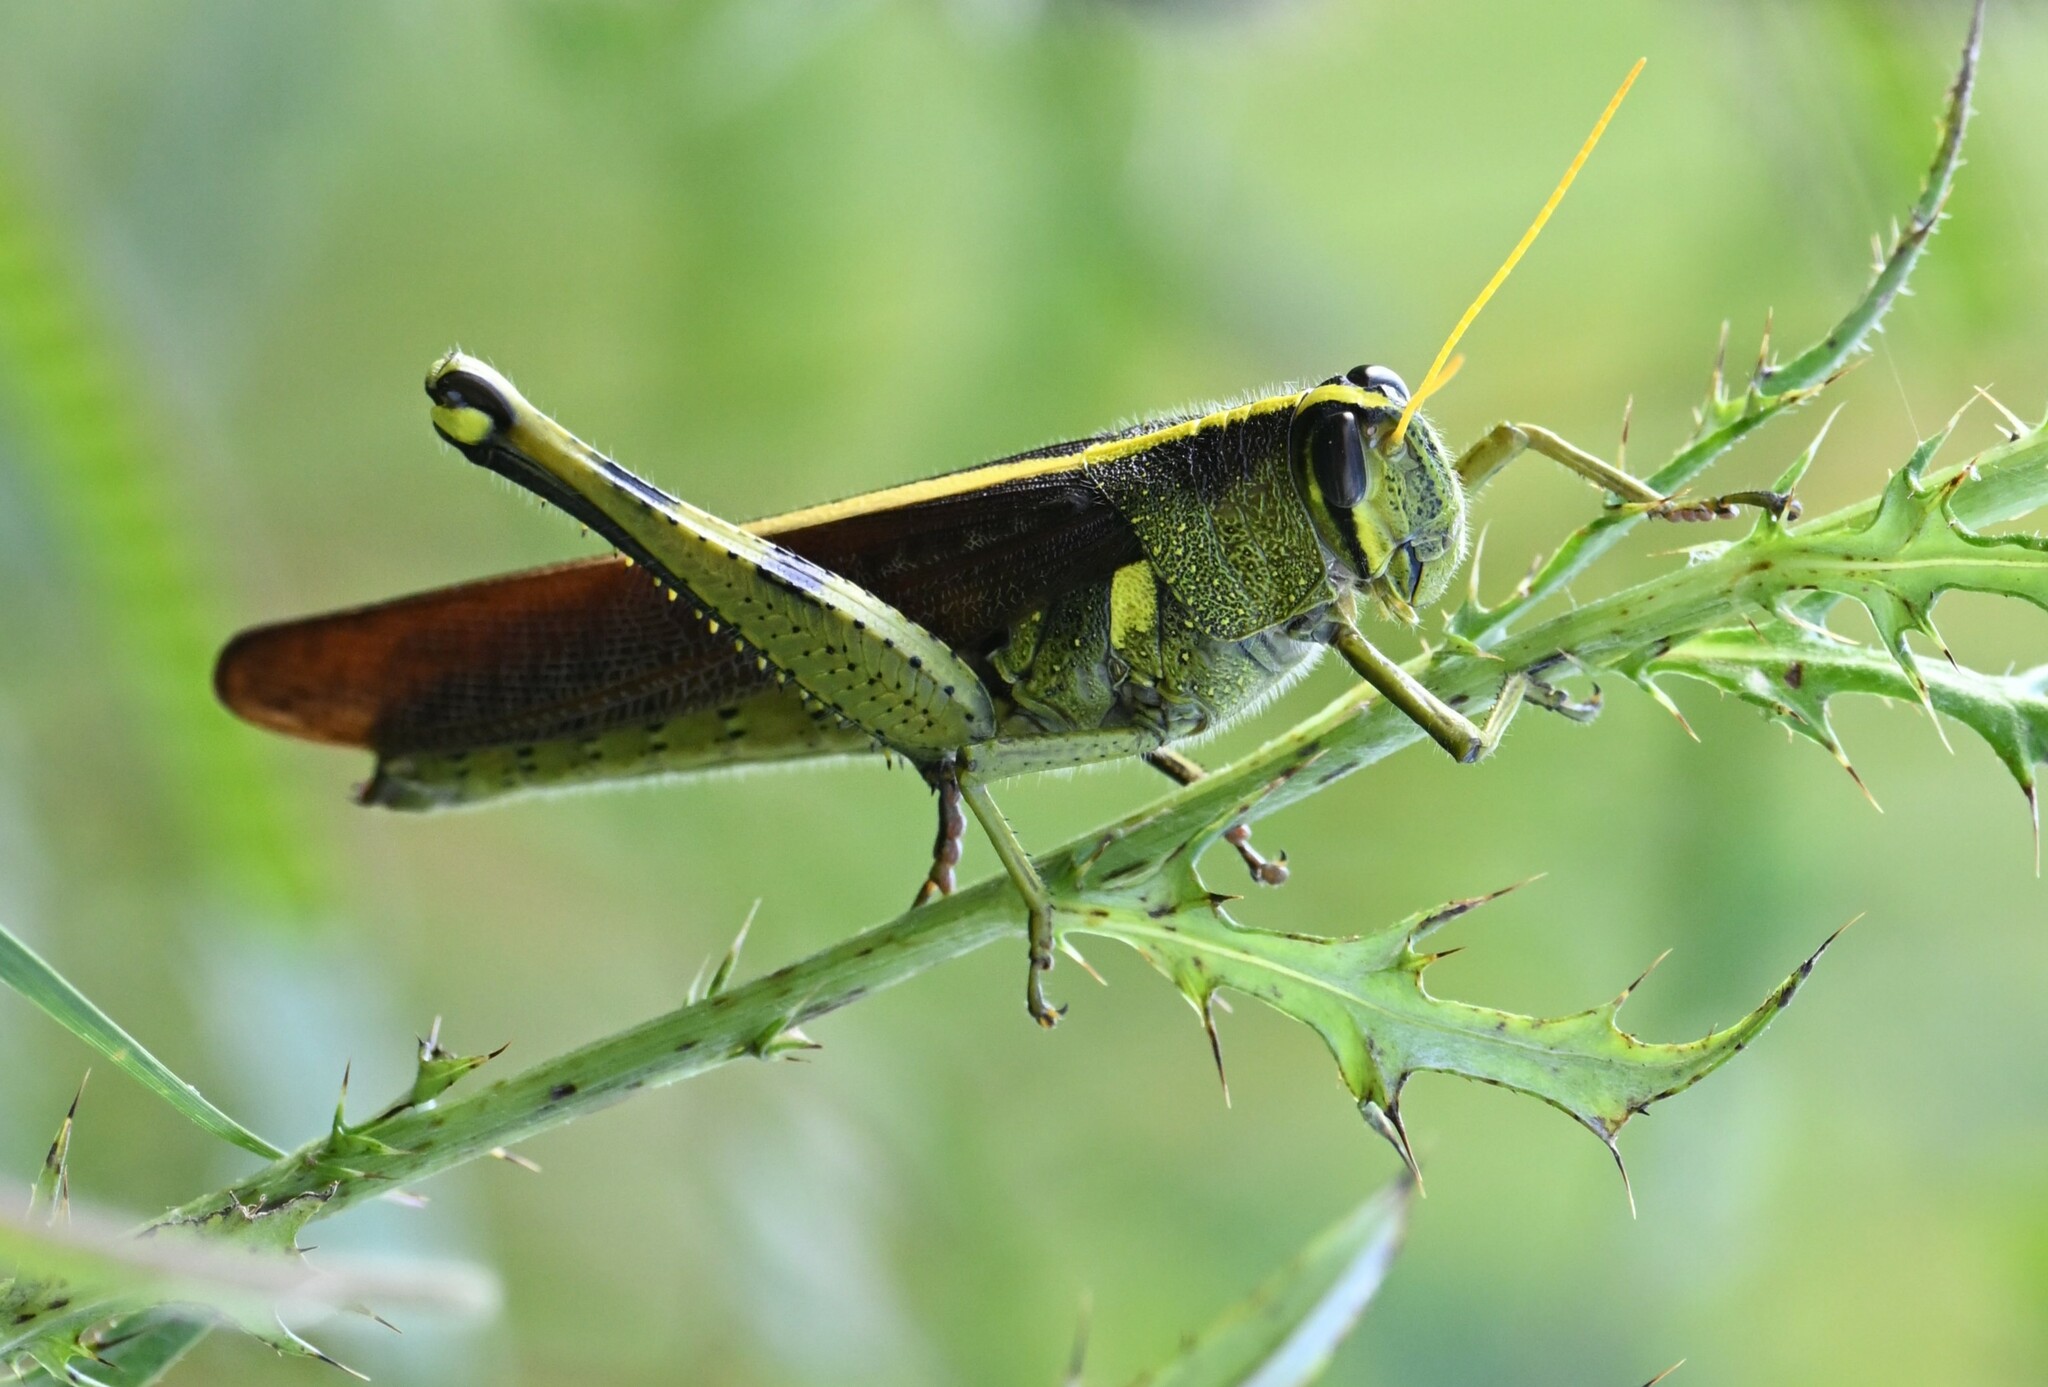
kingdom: Animalia
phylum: Arthropoda
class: Insecta
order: Orthoptera
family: Acrididae
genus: Schistocerca
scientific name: Schistocerca obscura
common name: Obscure bird grasshopper
